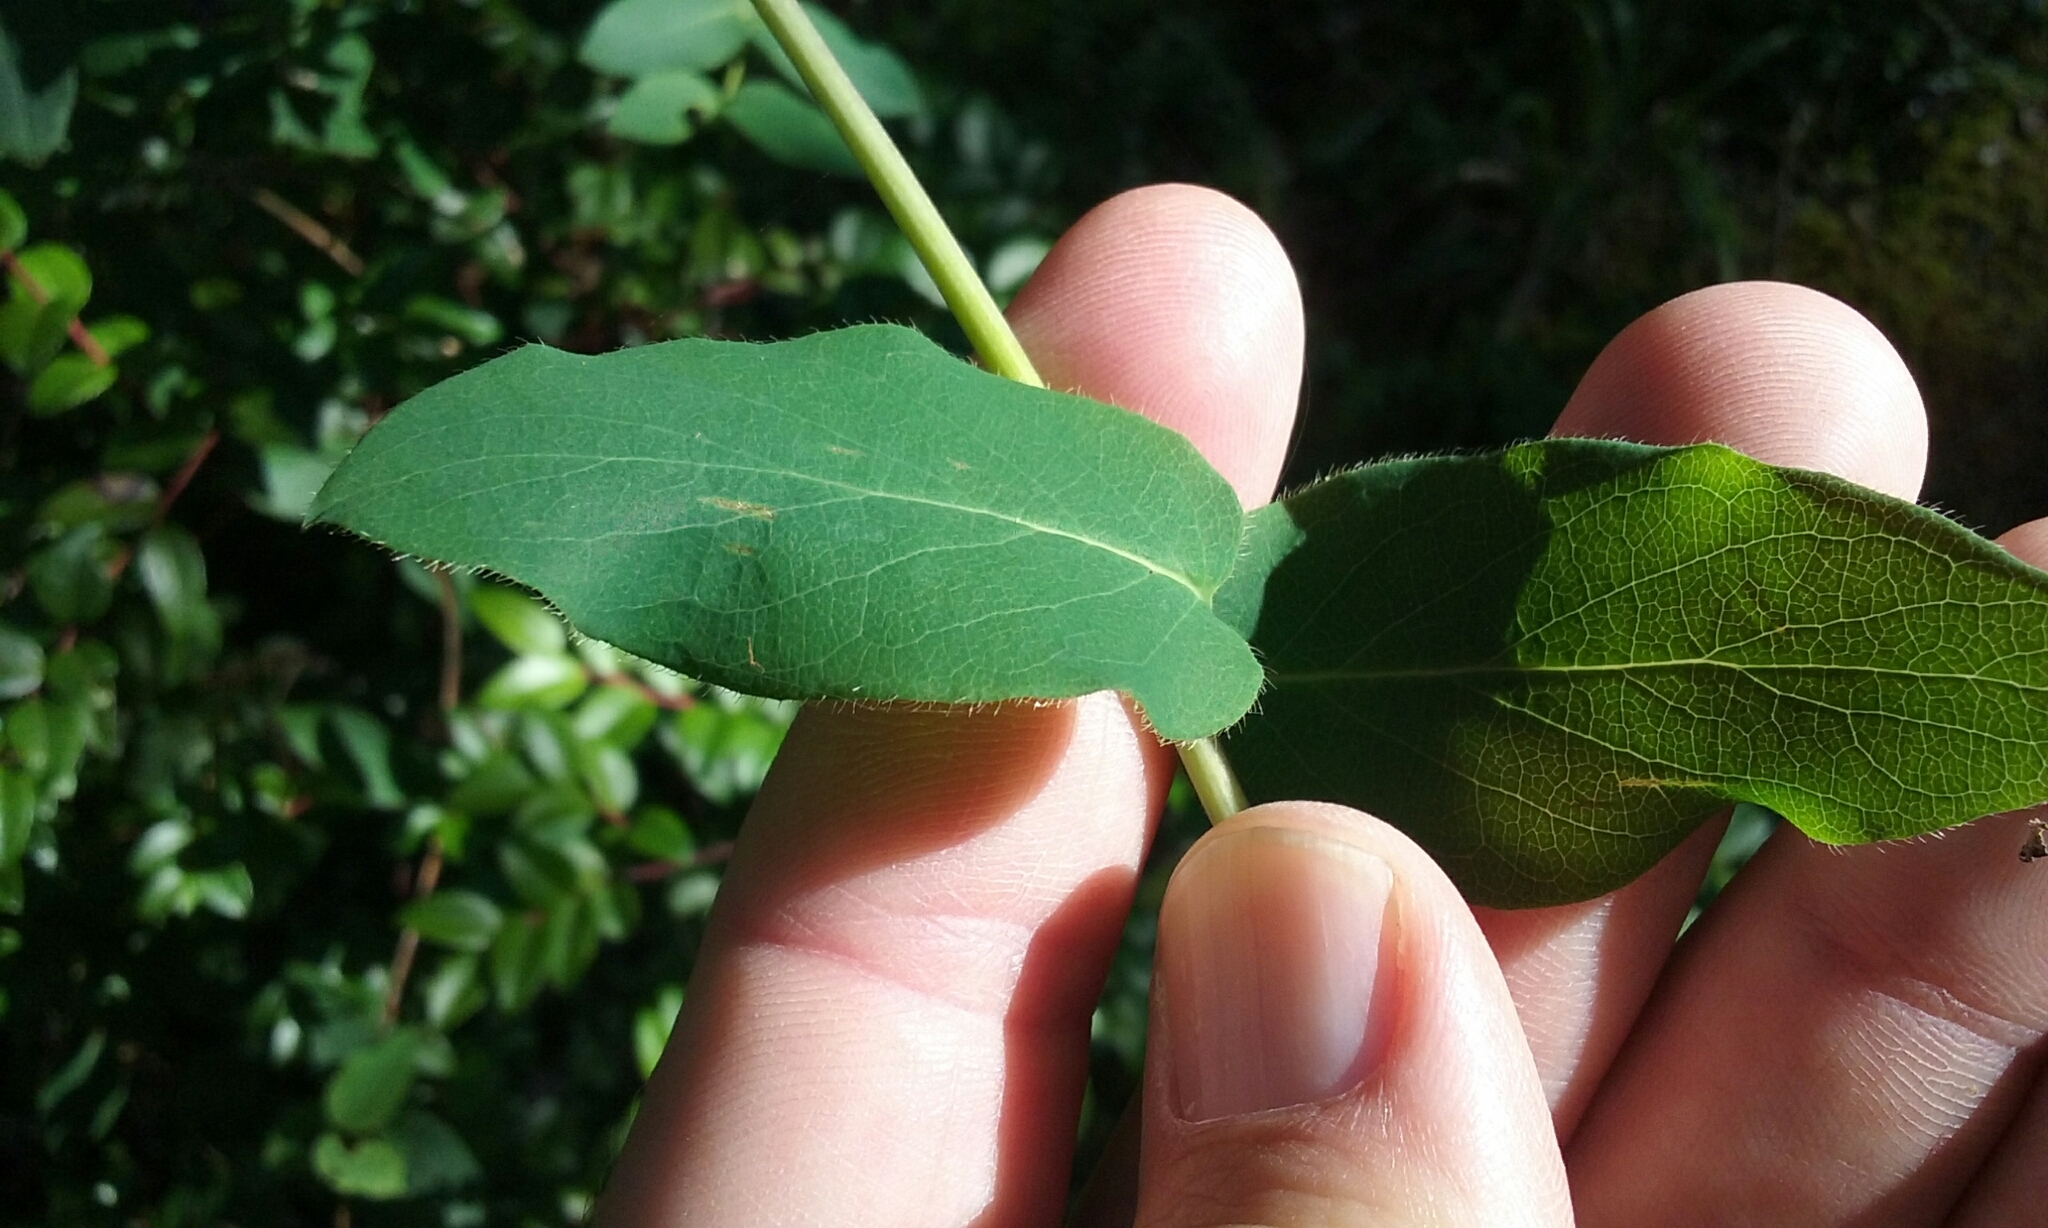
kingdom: Plantae
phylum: Tracheophyta
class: Magnoliopsida
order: Dipsacales
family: Caprifoliaceae
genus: Lonicera
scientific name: Lonicera hispidula
